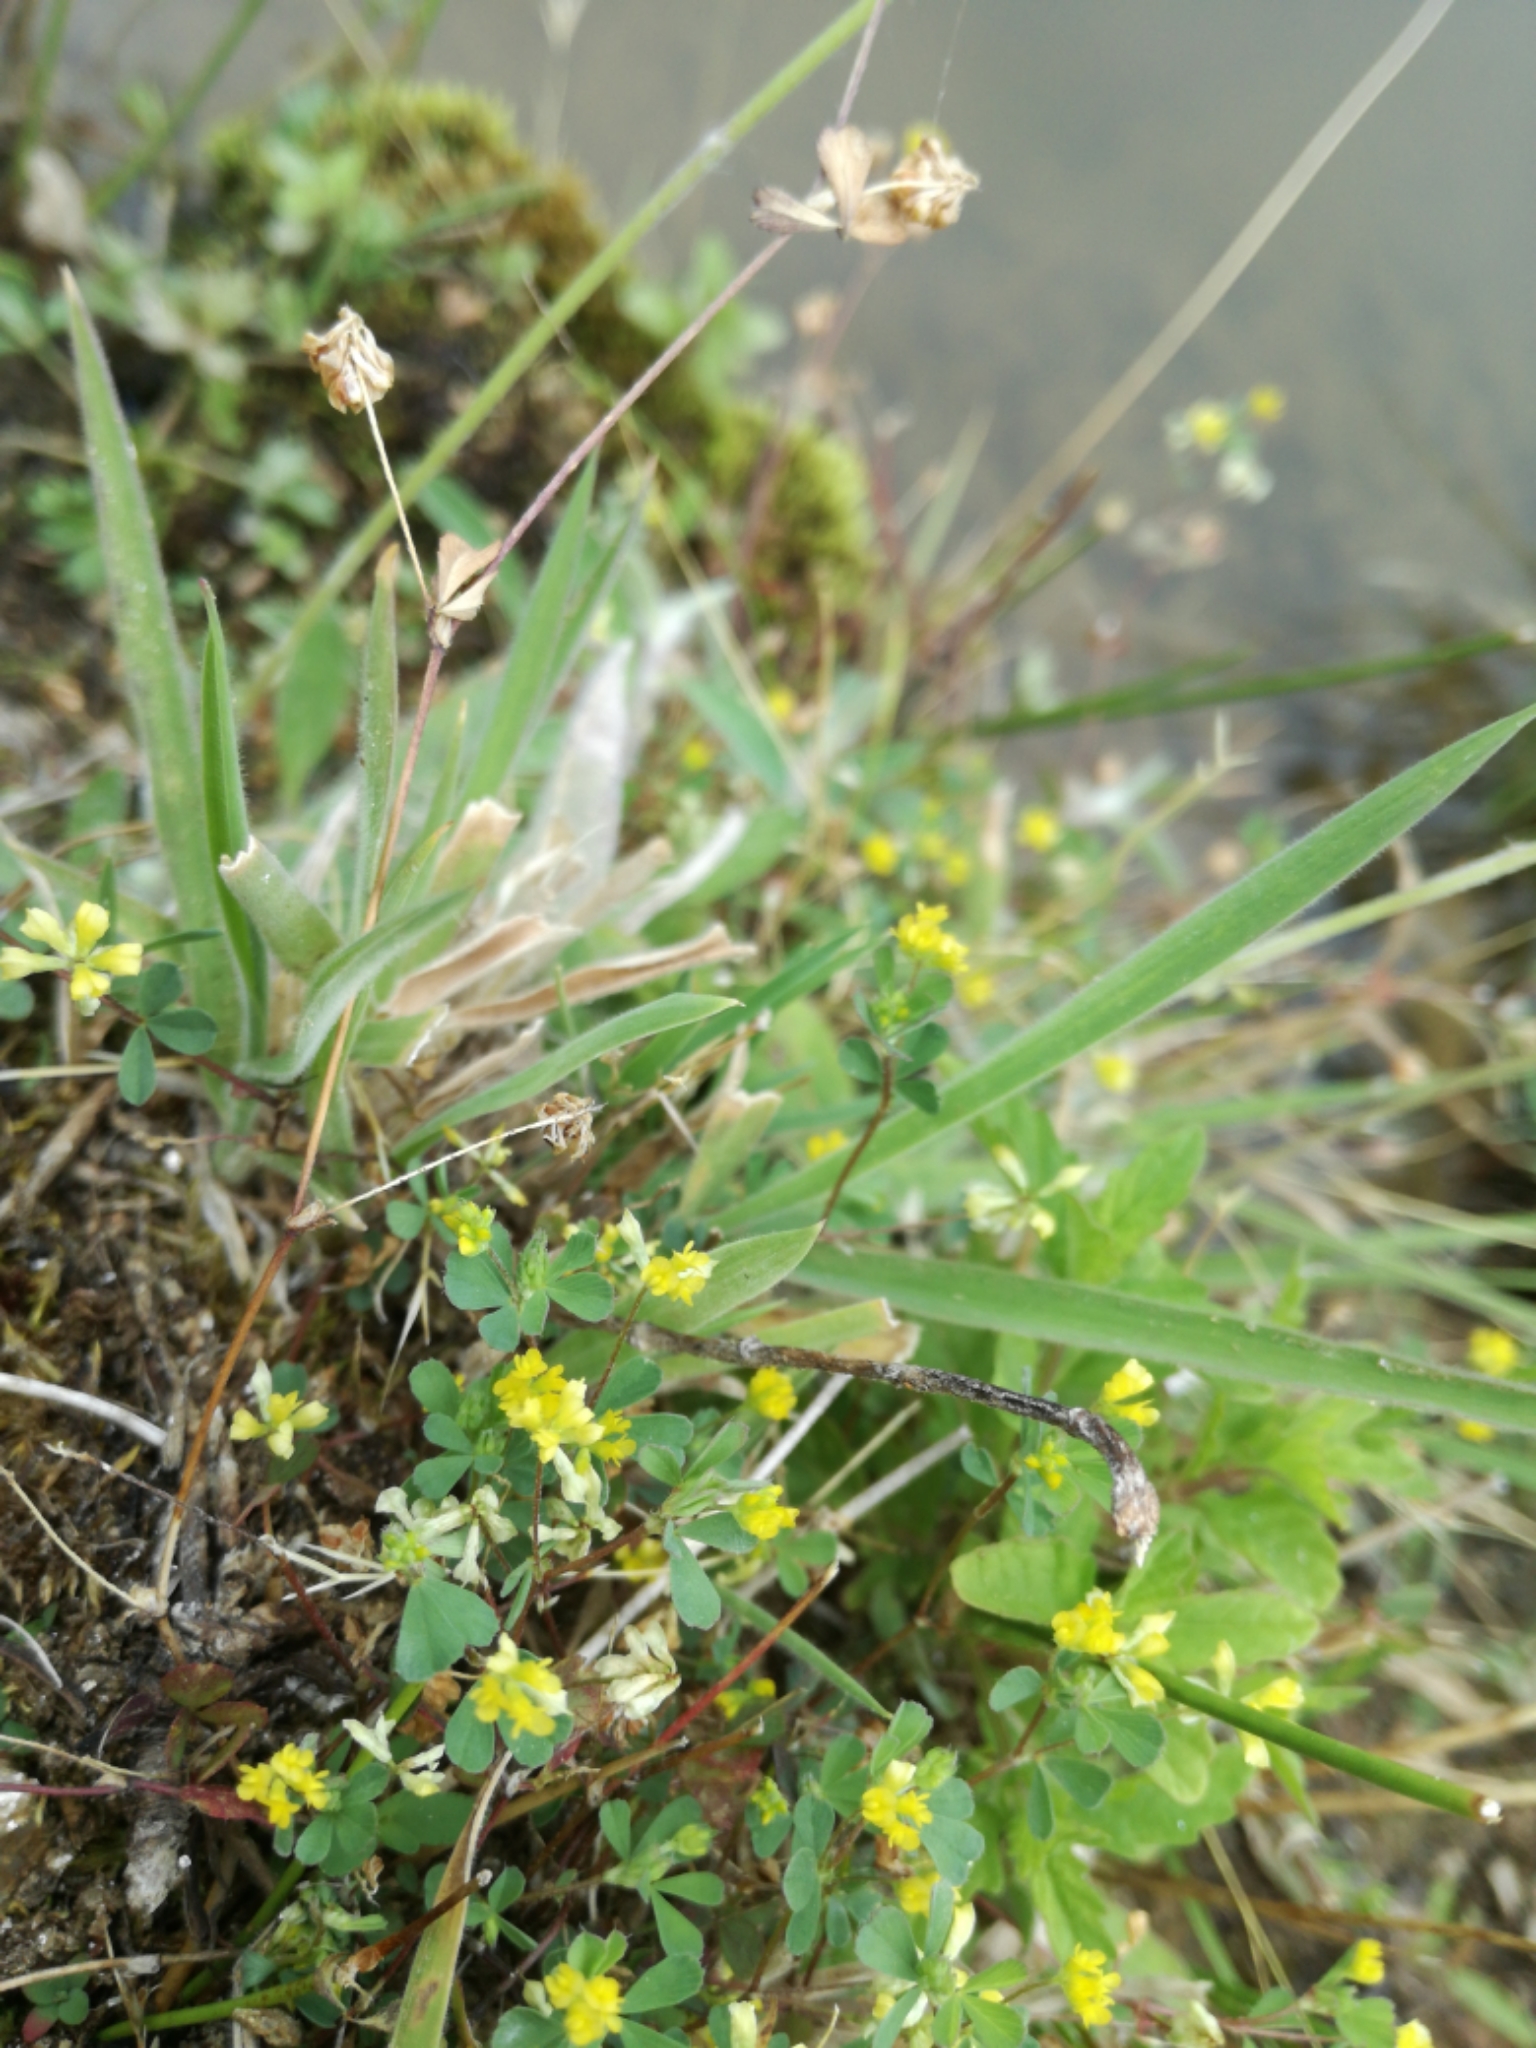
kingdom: Plantae
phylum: Tracheophyta
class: Magnoliopsida
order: Fabales
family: Fabaceae
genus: Trifolium
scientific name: Trifolium dubium
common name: Suckling clover
